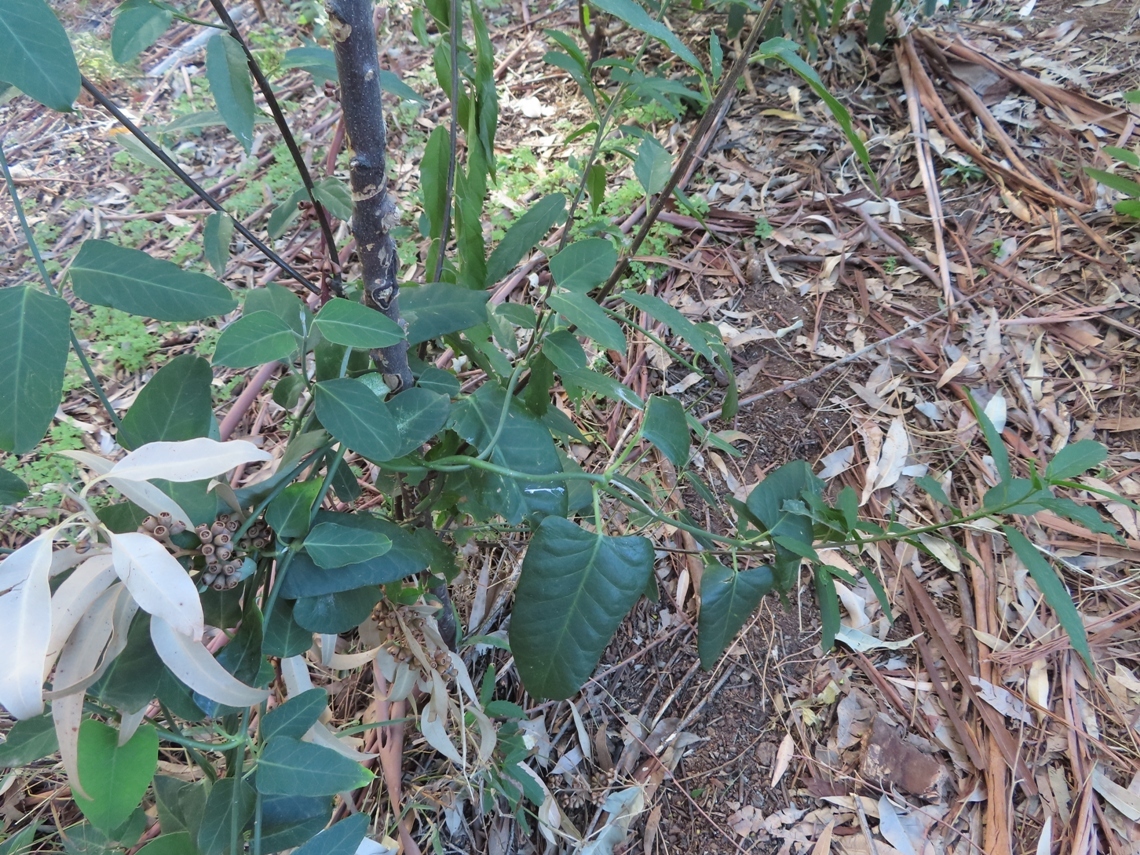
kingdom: Plantae
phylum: Tracheophyta
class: Magnoliopsida
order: Gentianales
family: Apocynaceae
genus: Araujia
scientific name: Araujia sericifera
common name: White bladderflower
